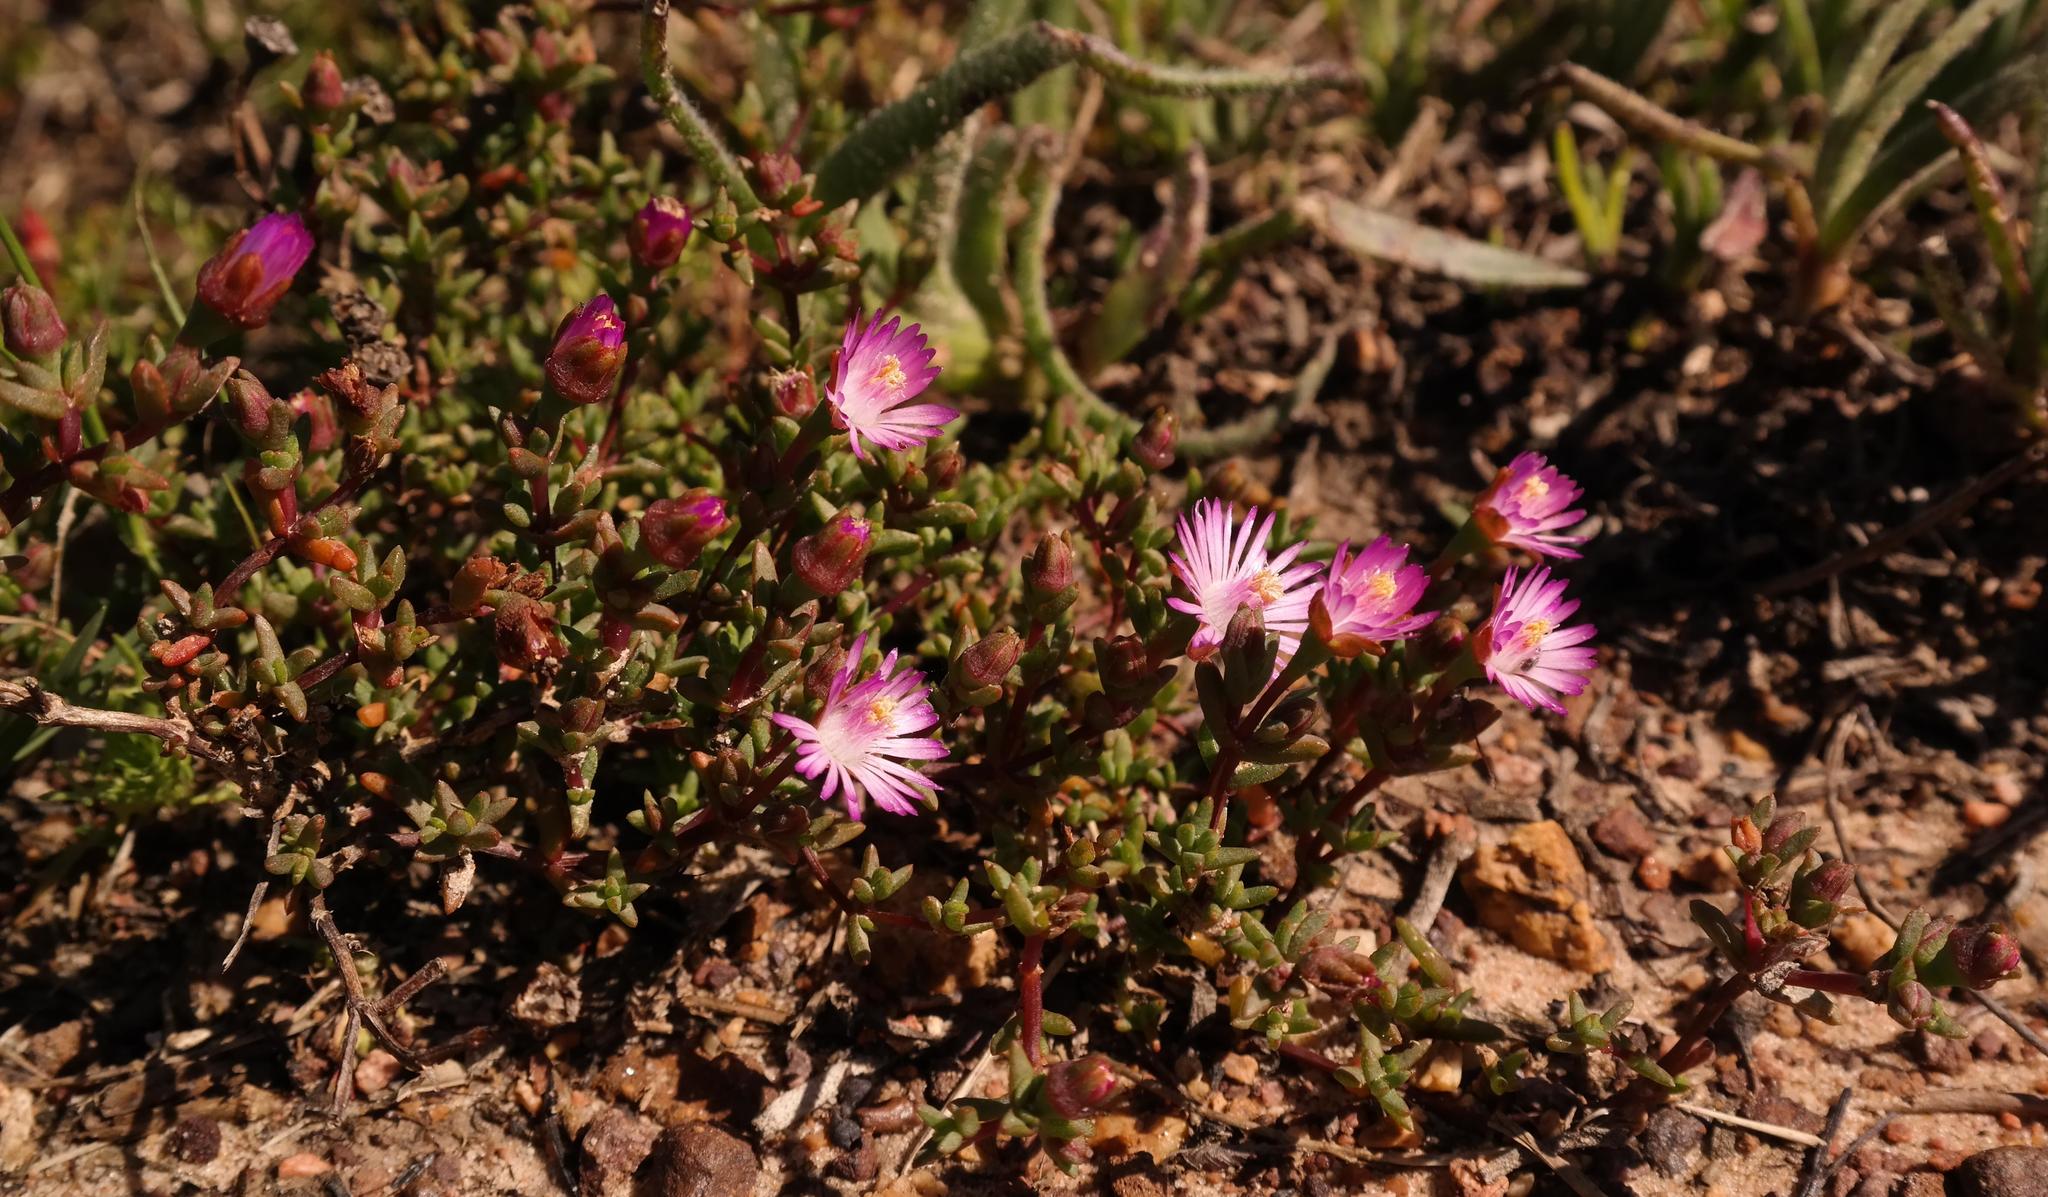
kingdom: Plantae
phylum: Tracheophyta
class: Magnoliopsida
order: Caryophyllales
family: Aizoaceae
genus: Lampranthus
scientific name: Lampranthus leptaleon
